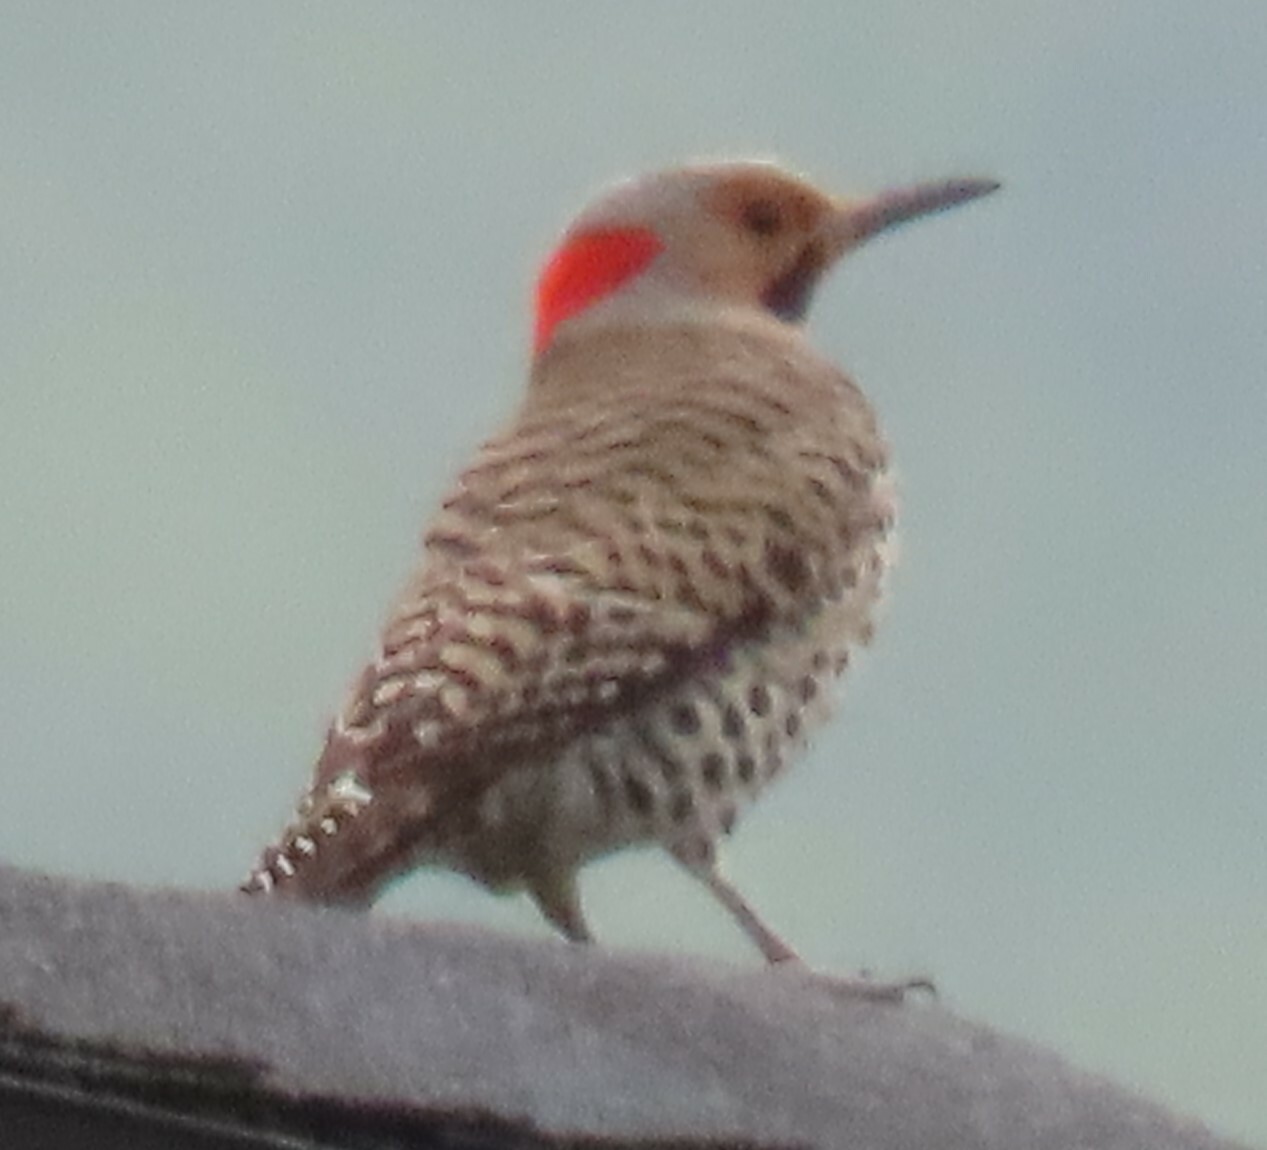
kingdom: Animalia
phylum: Chordata
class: Aves
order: Piciformes
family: Picidae
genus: Colaptes
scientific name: Colaptes auratus
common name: Northern flicker
